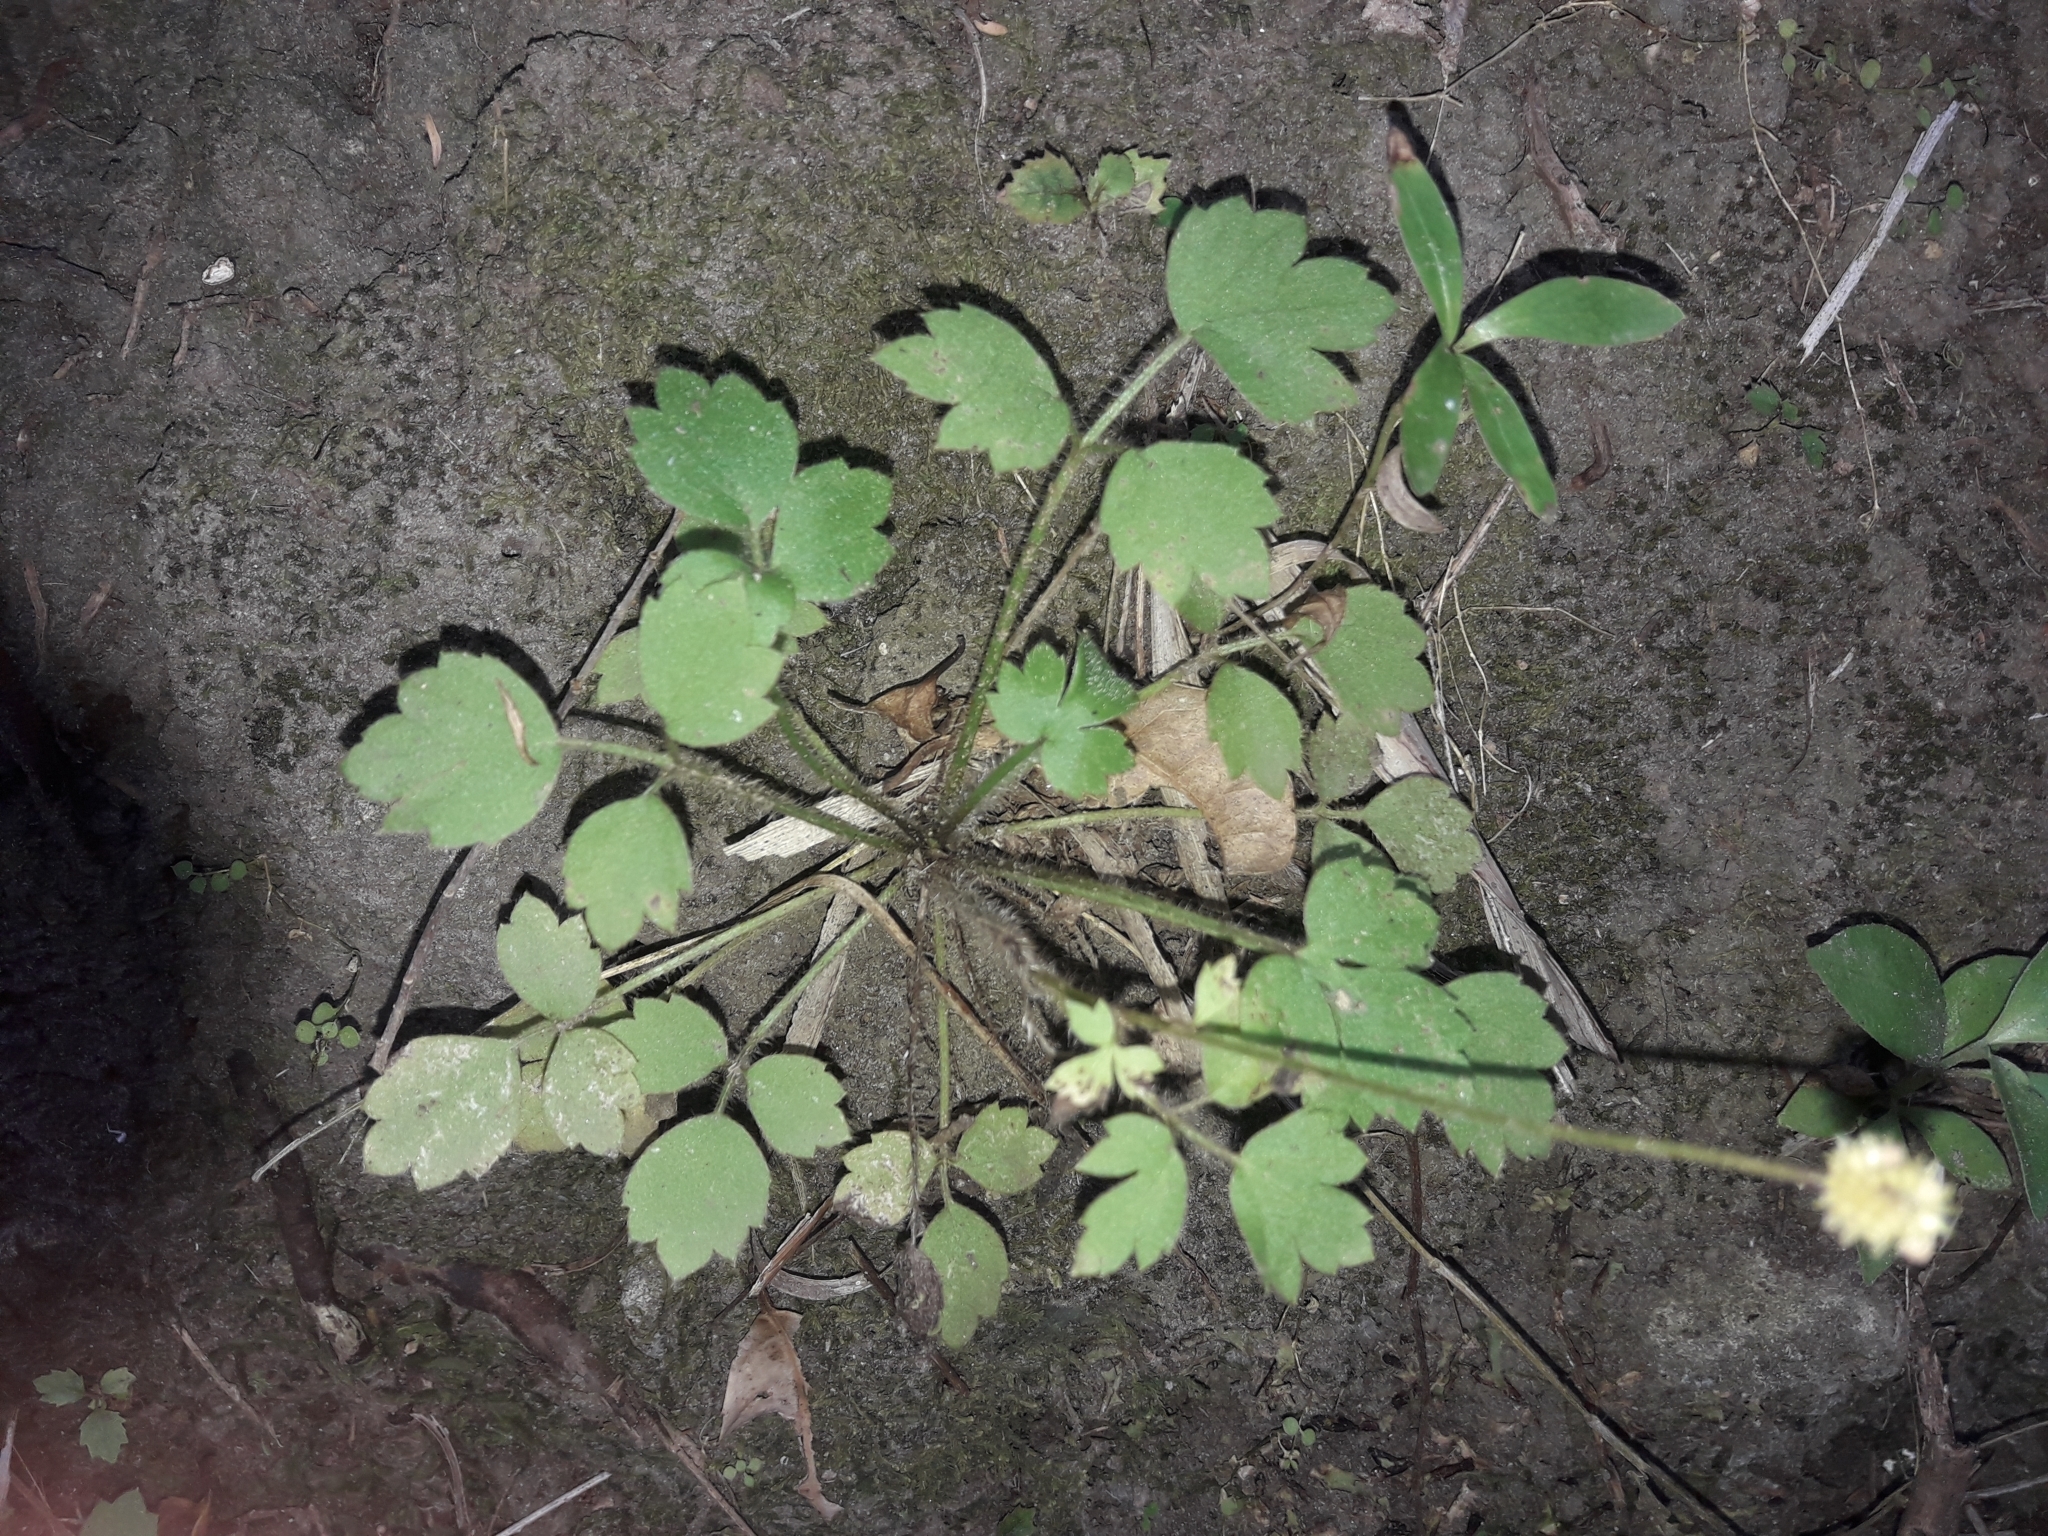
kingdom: Plantae
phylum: Tracheophyta
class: Magnoliopsida
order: Ranunculales
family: Ranunculaceae
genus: Ranunculus
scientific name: Ranunculus reflexus
